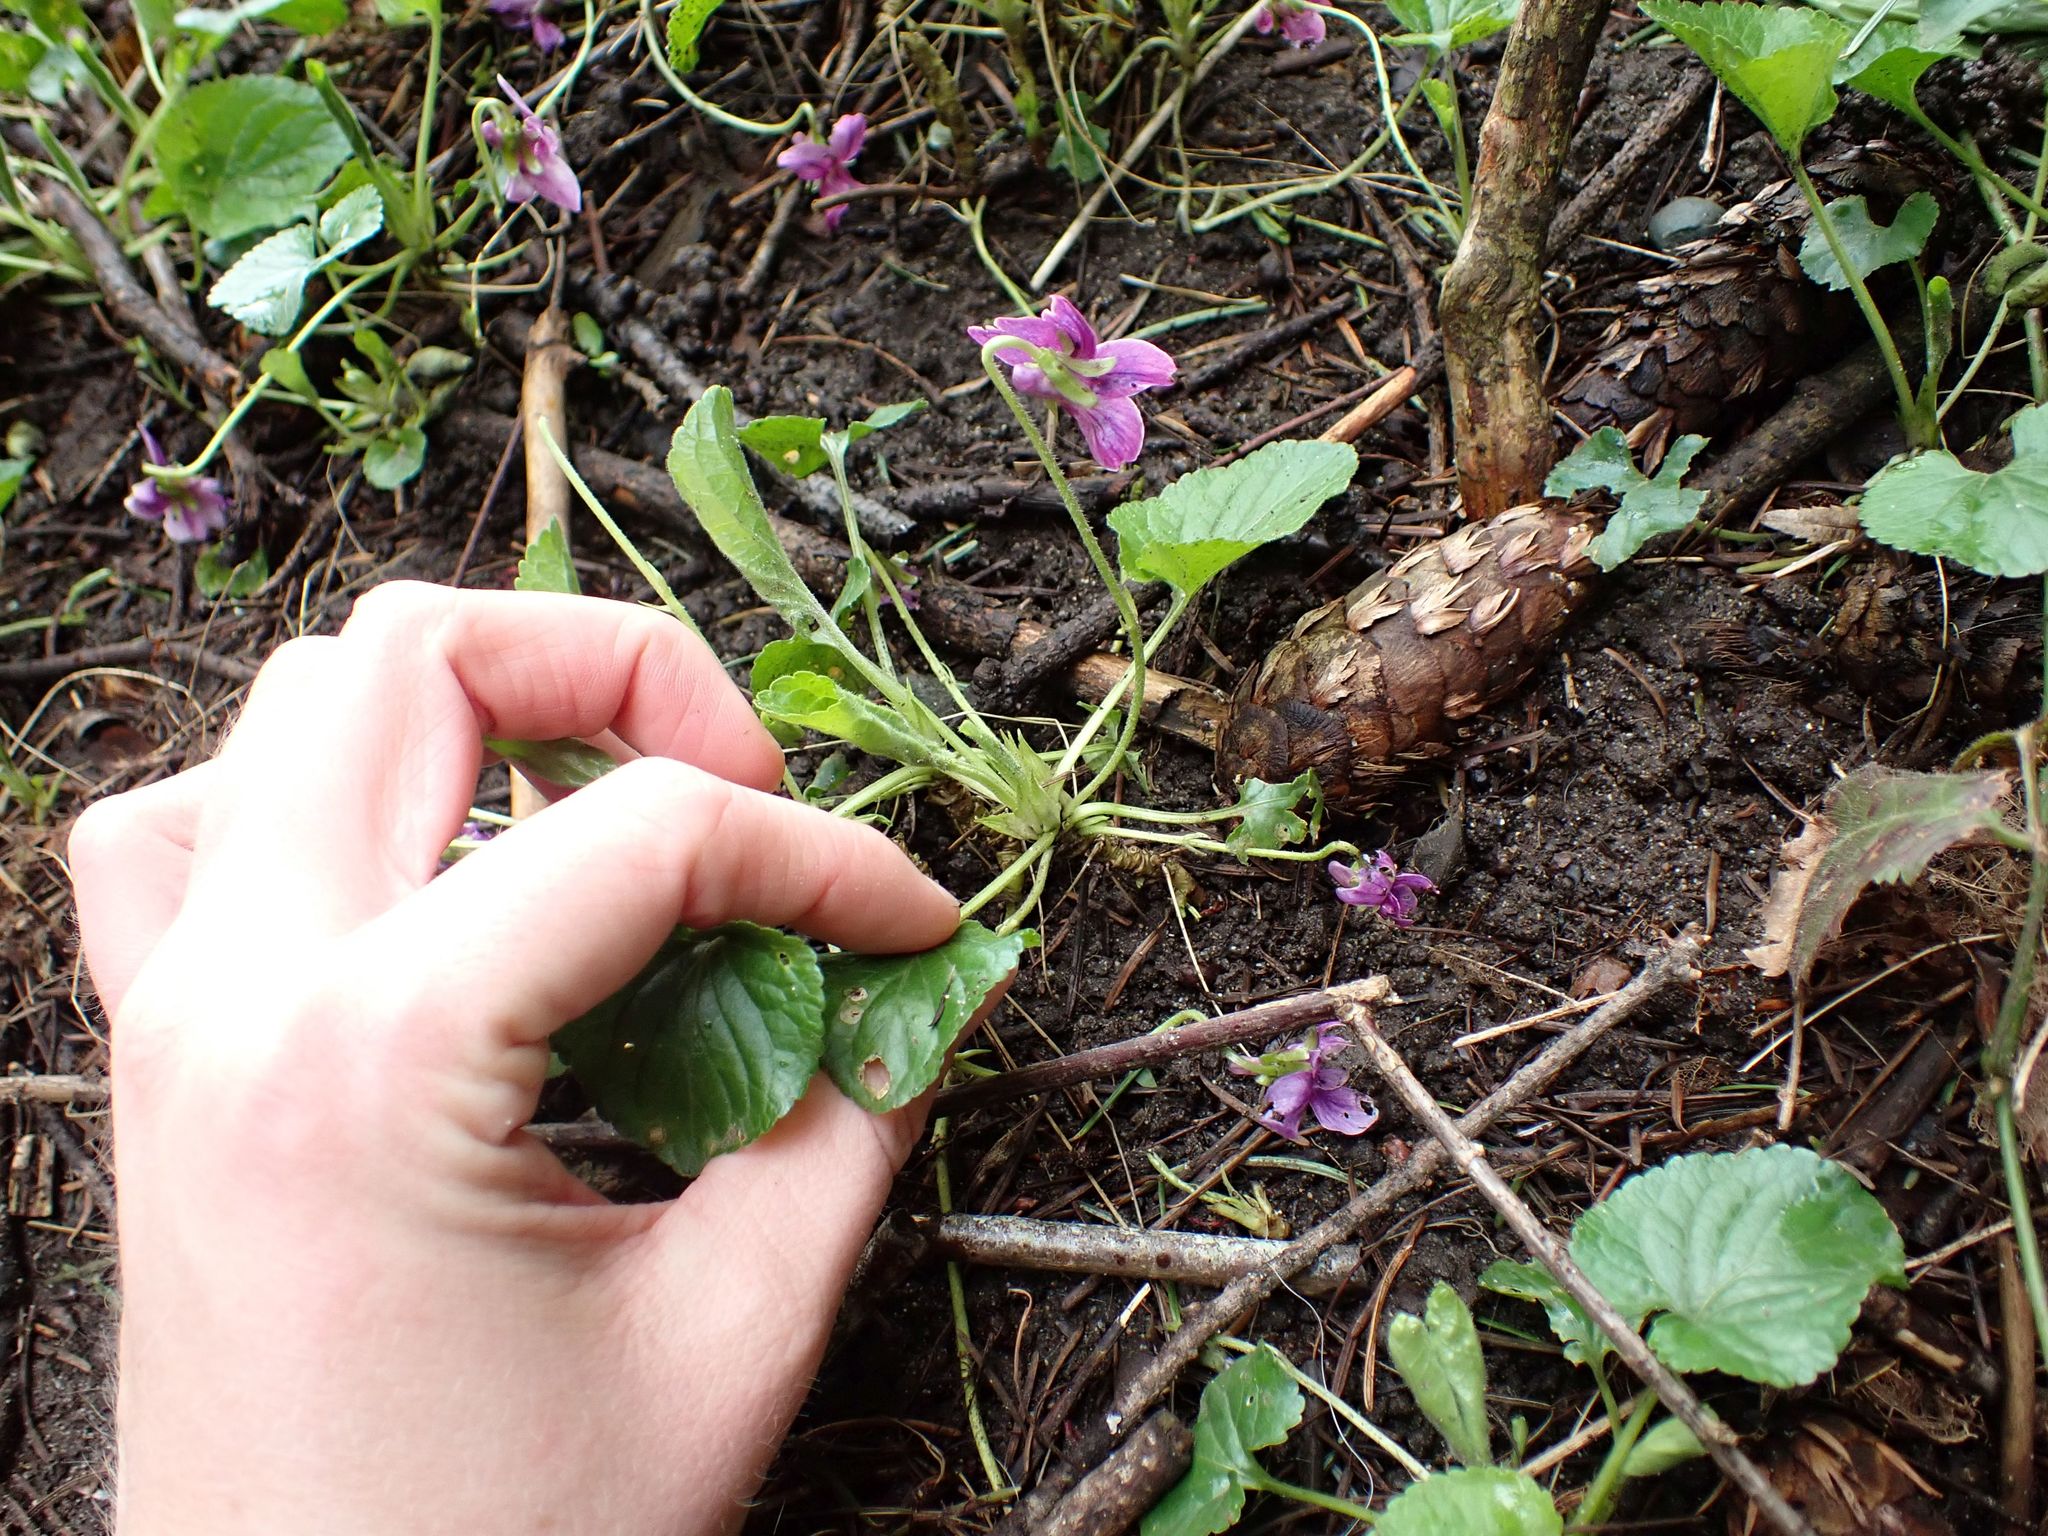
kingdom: Plantae
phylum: Tracheophyta
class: Magnoliopsida
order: Malpighiales
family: Violaceae
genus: Viola
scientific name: Viola odorata
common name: Sweet violet
